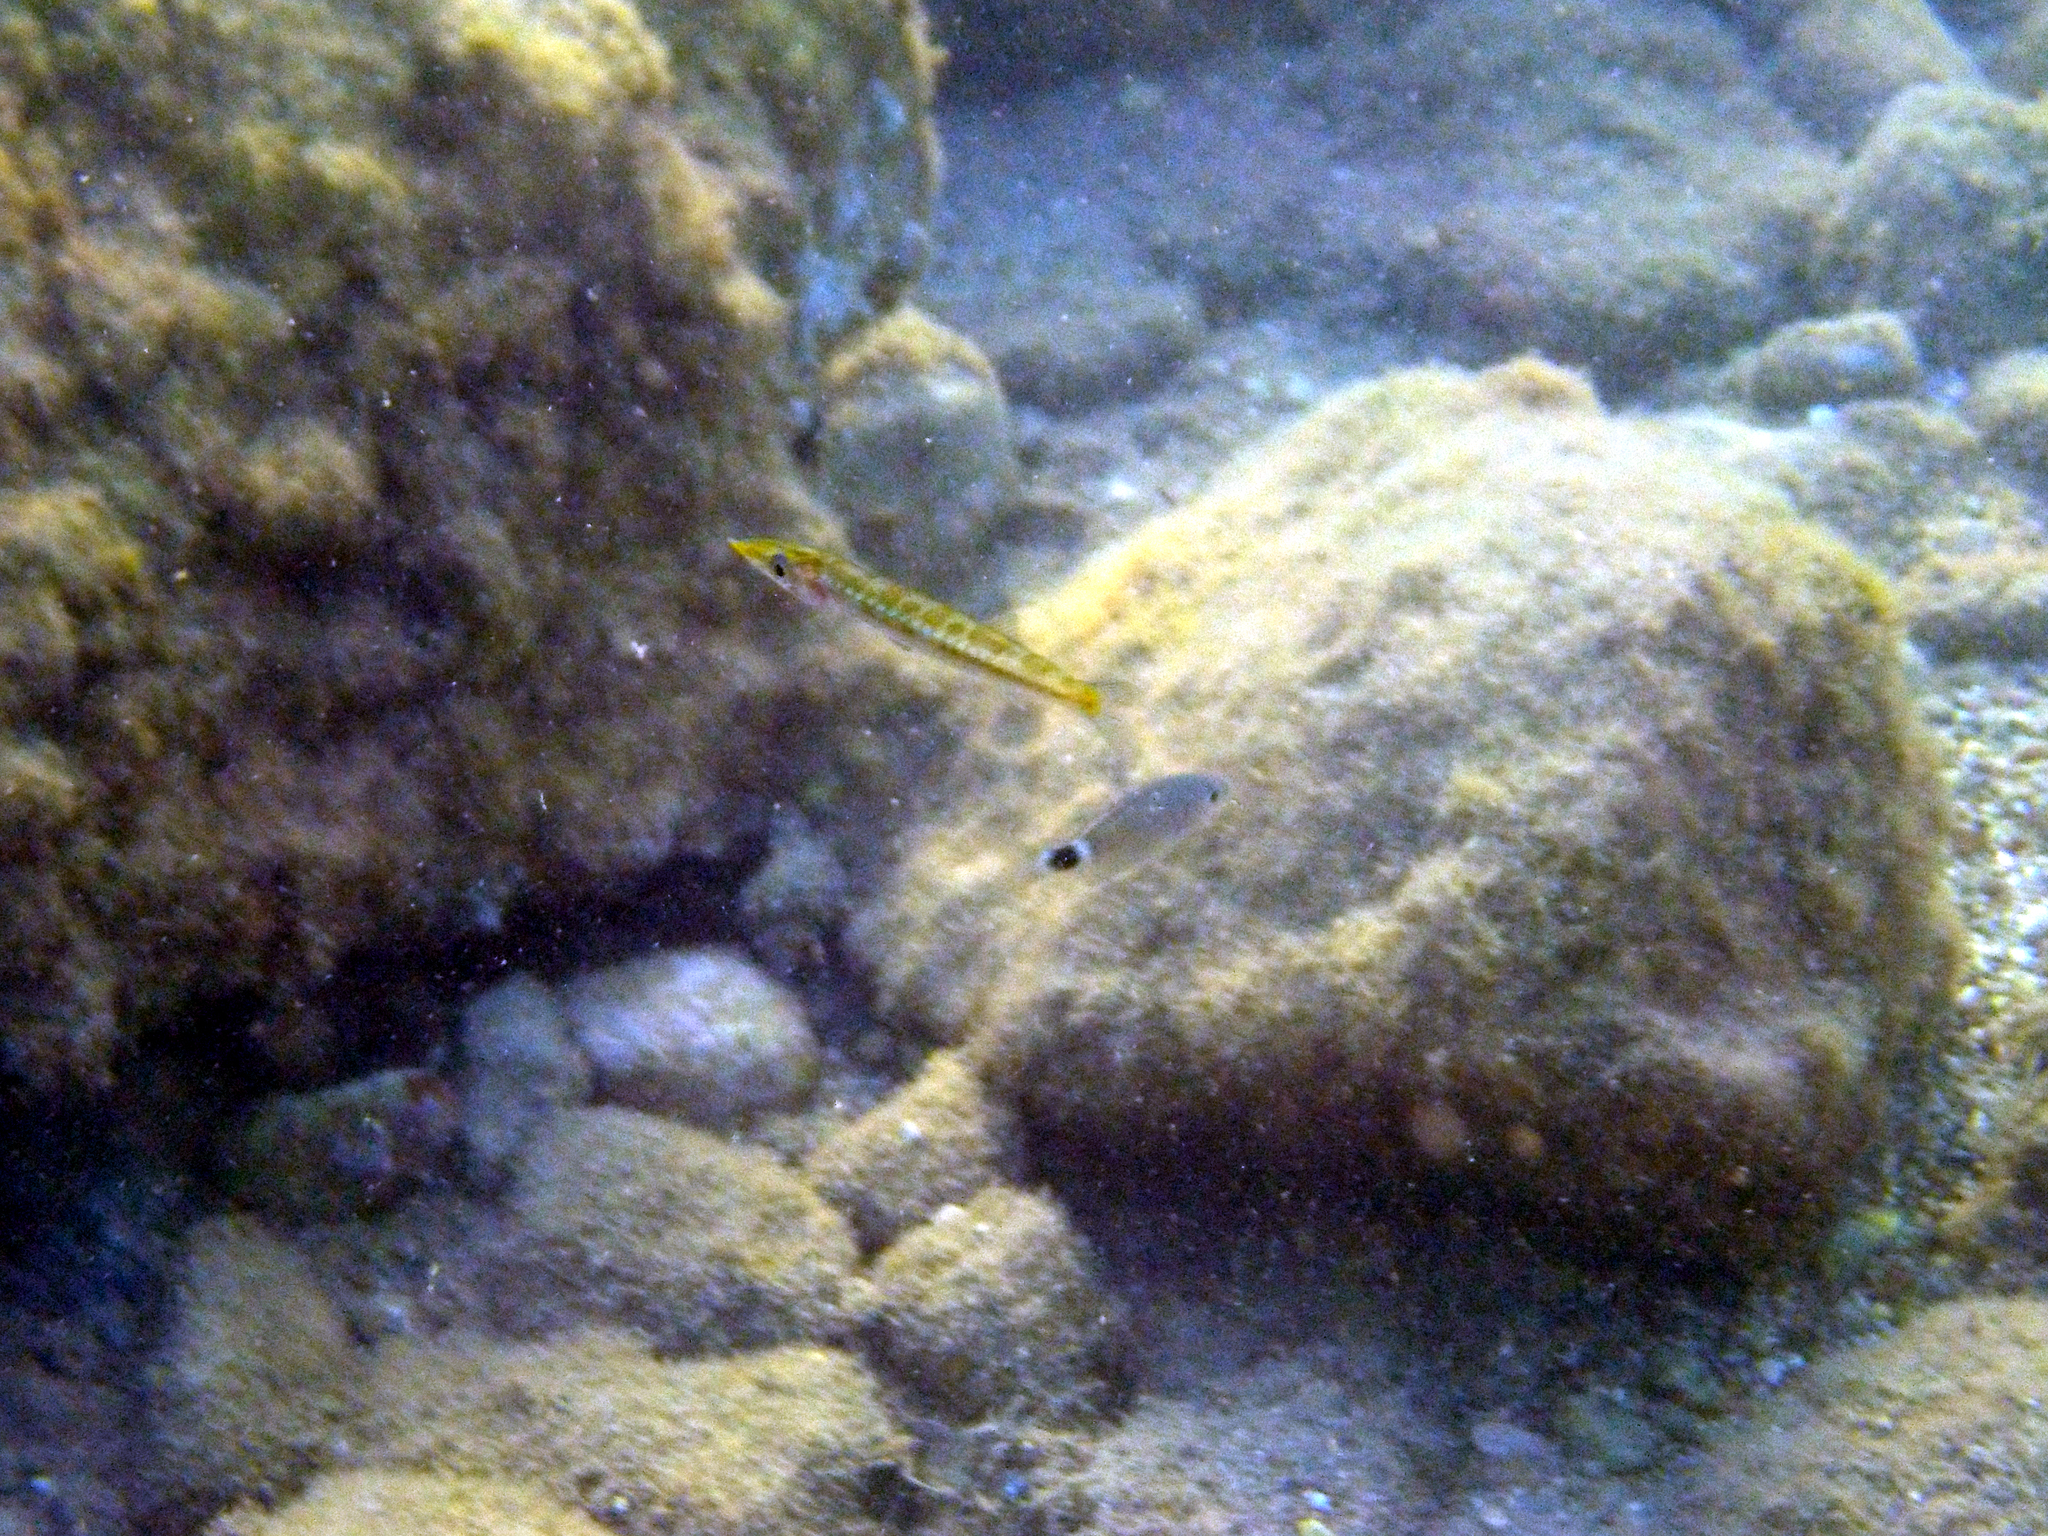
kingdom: Animalia
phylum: Chordata
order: Perciformes
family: Sphyraenidae
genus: Sphyraena
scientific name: Sphyraena
